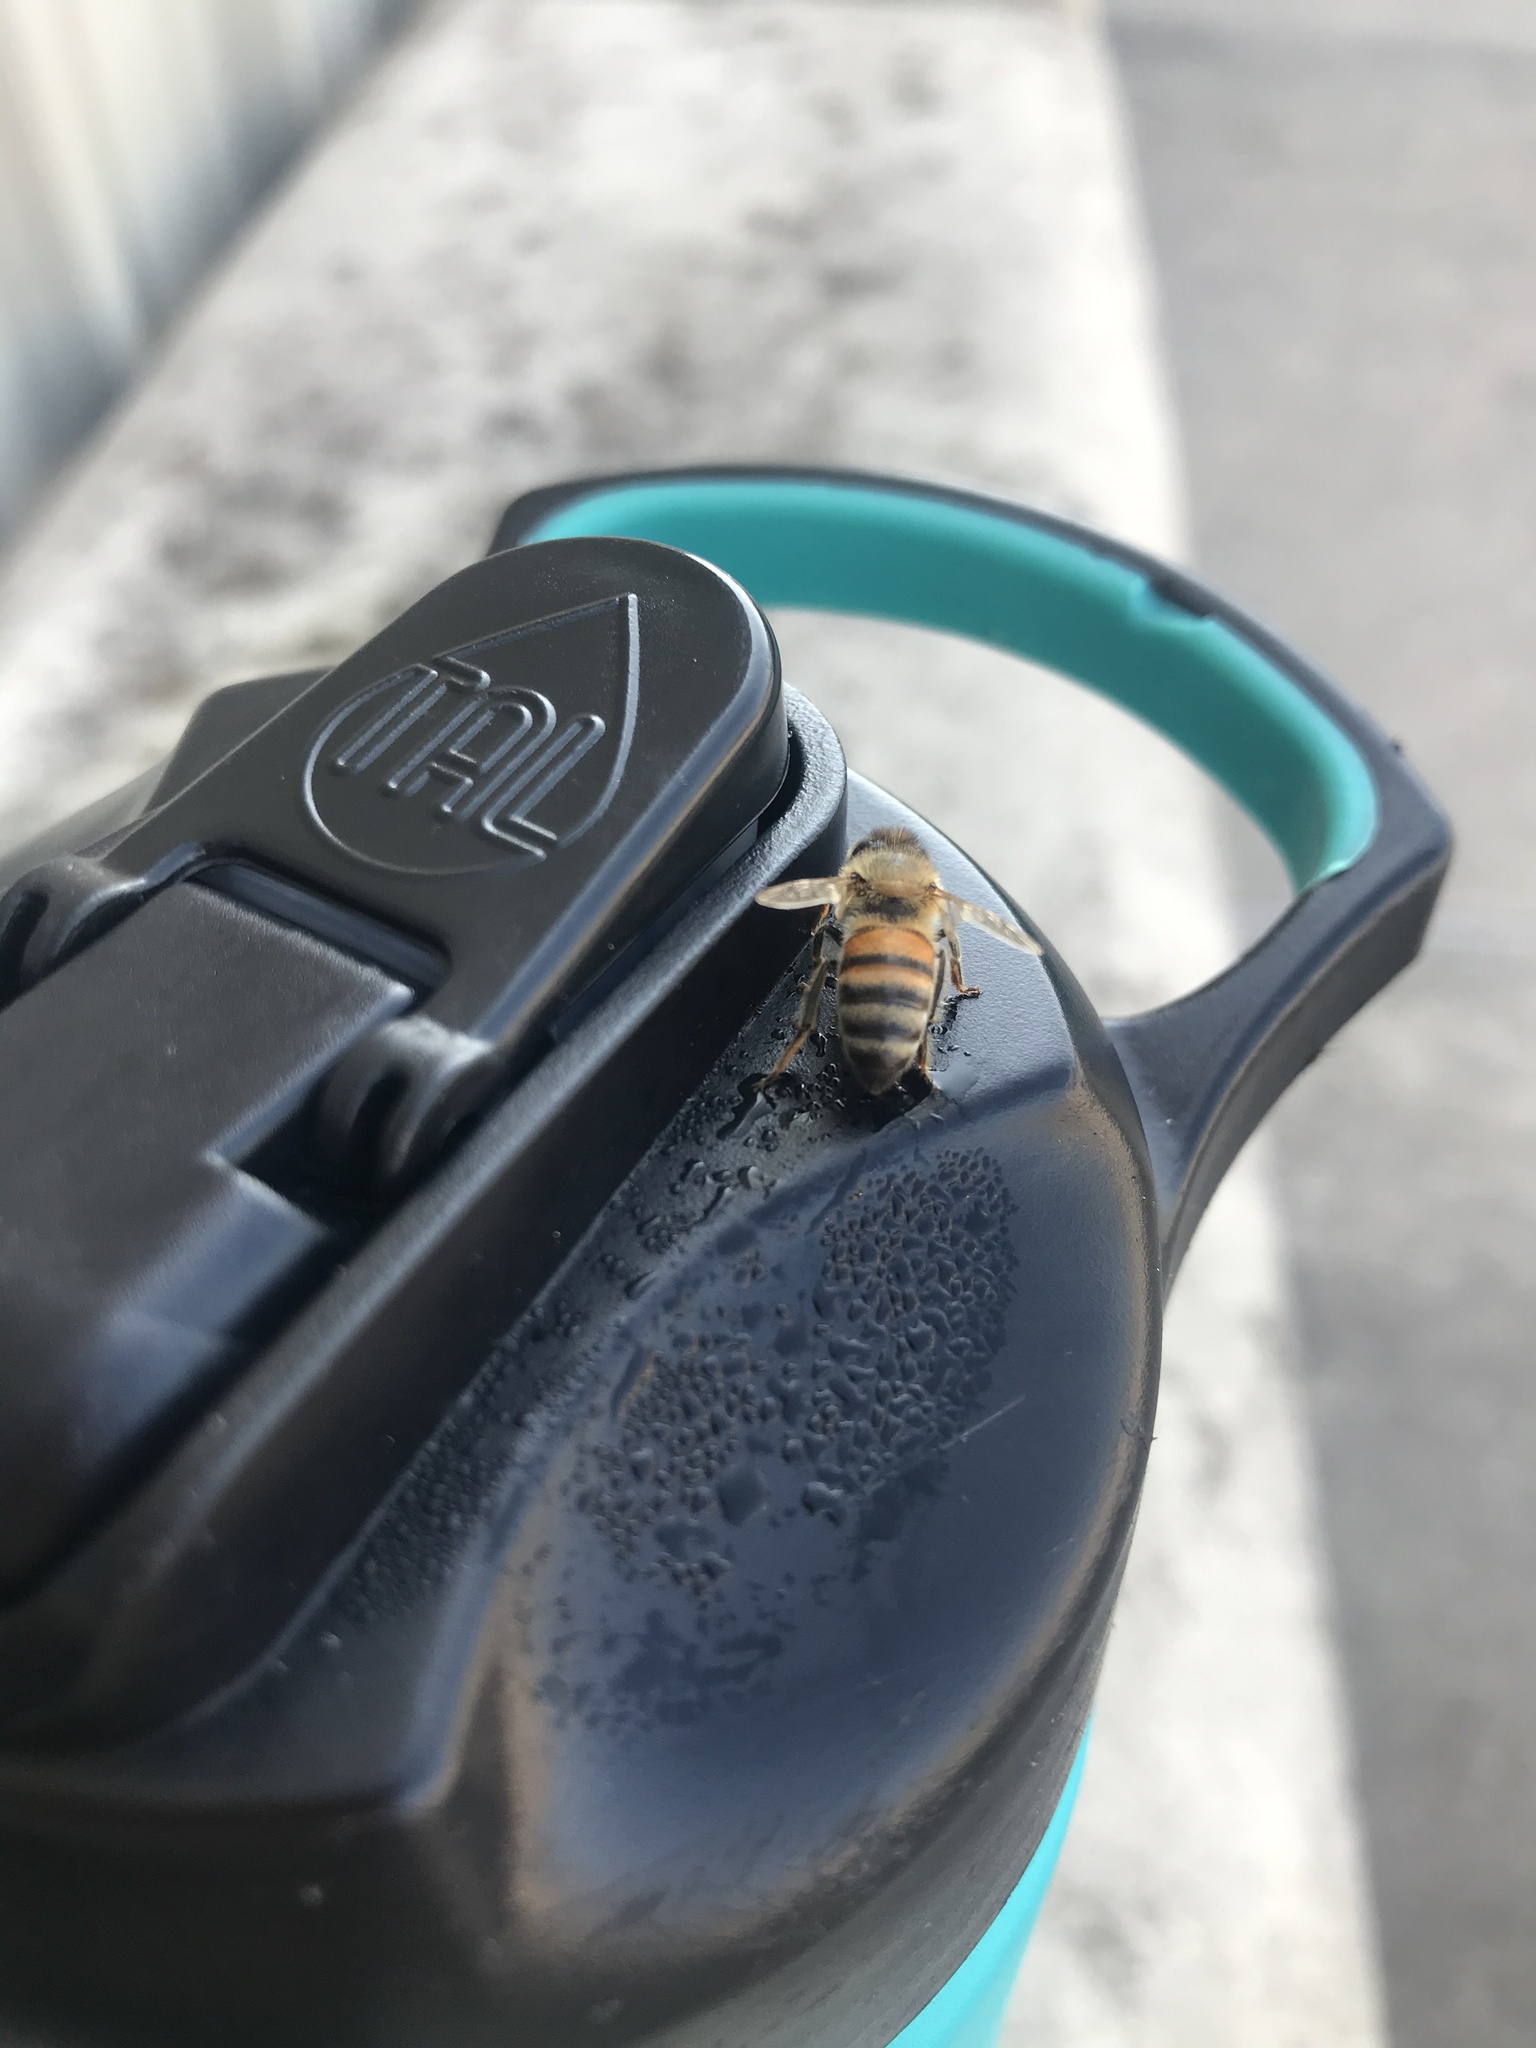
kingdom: Animalia
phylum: Arthropoda
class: Insecta
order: Hymenoptera
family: Apidae
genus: Apis
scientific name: Apis mellifera
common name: Honey bee
